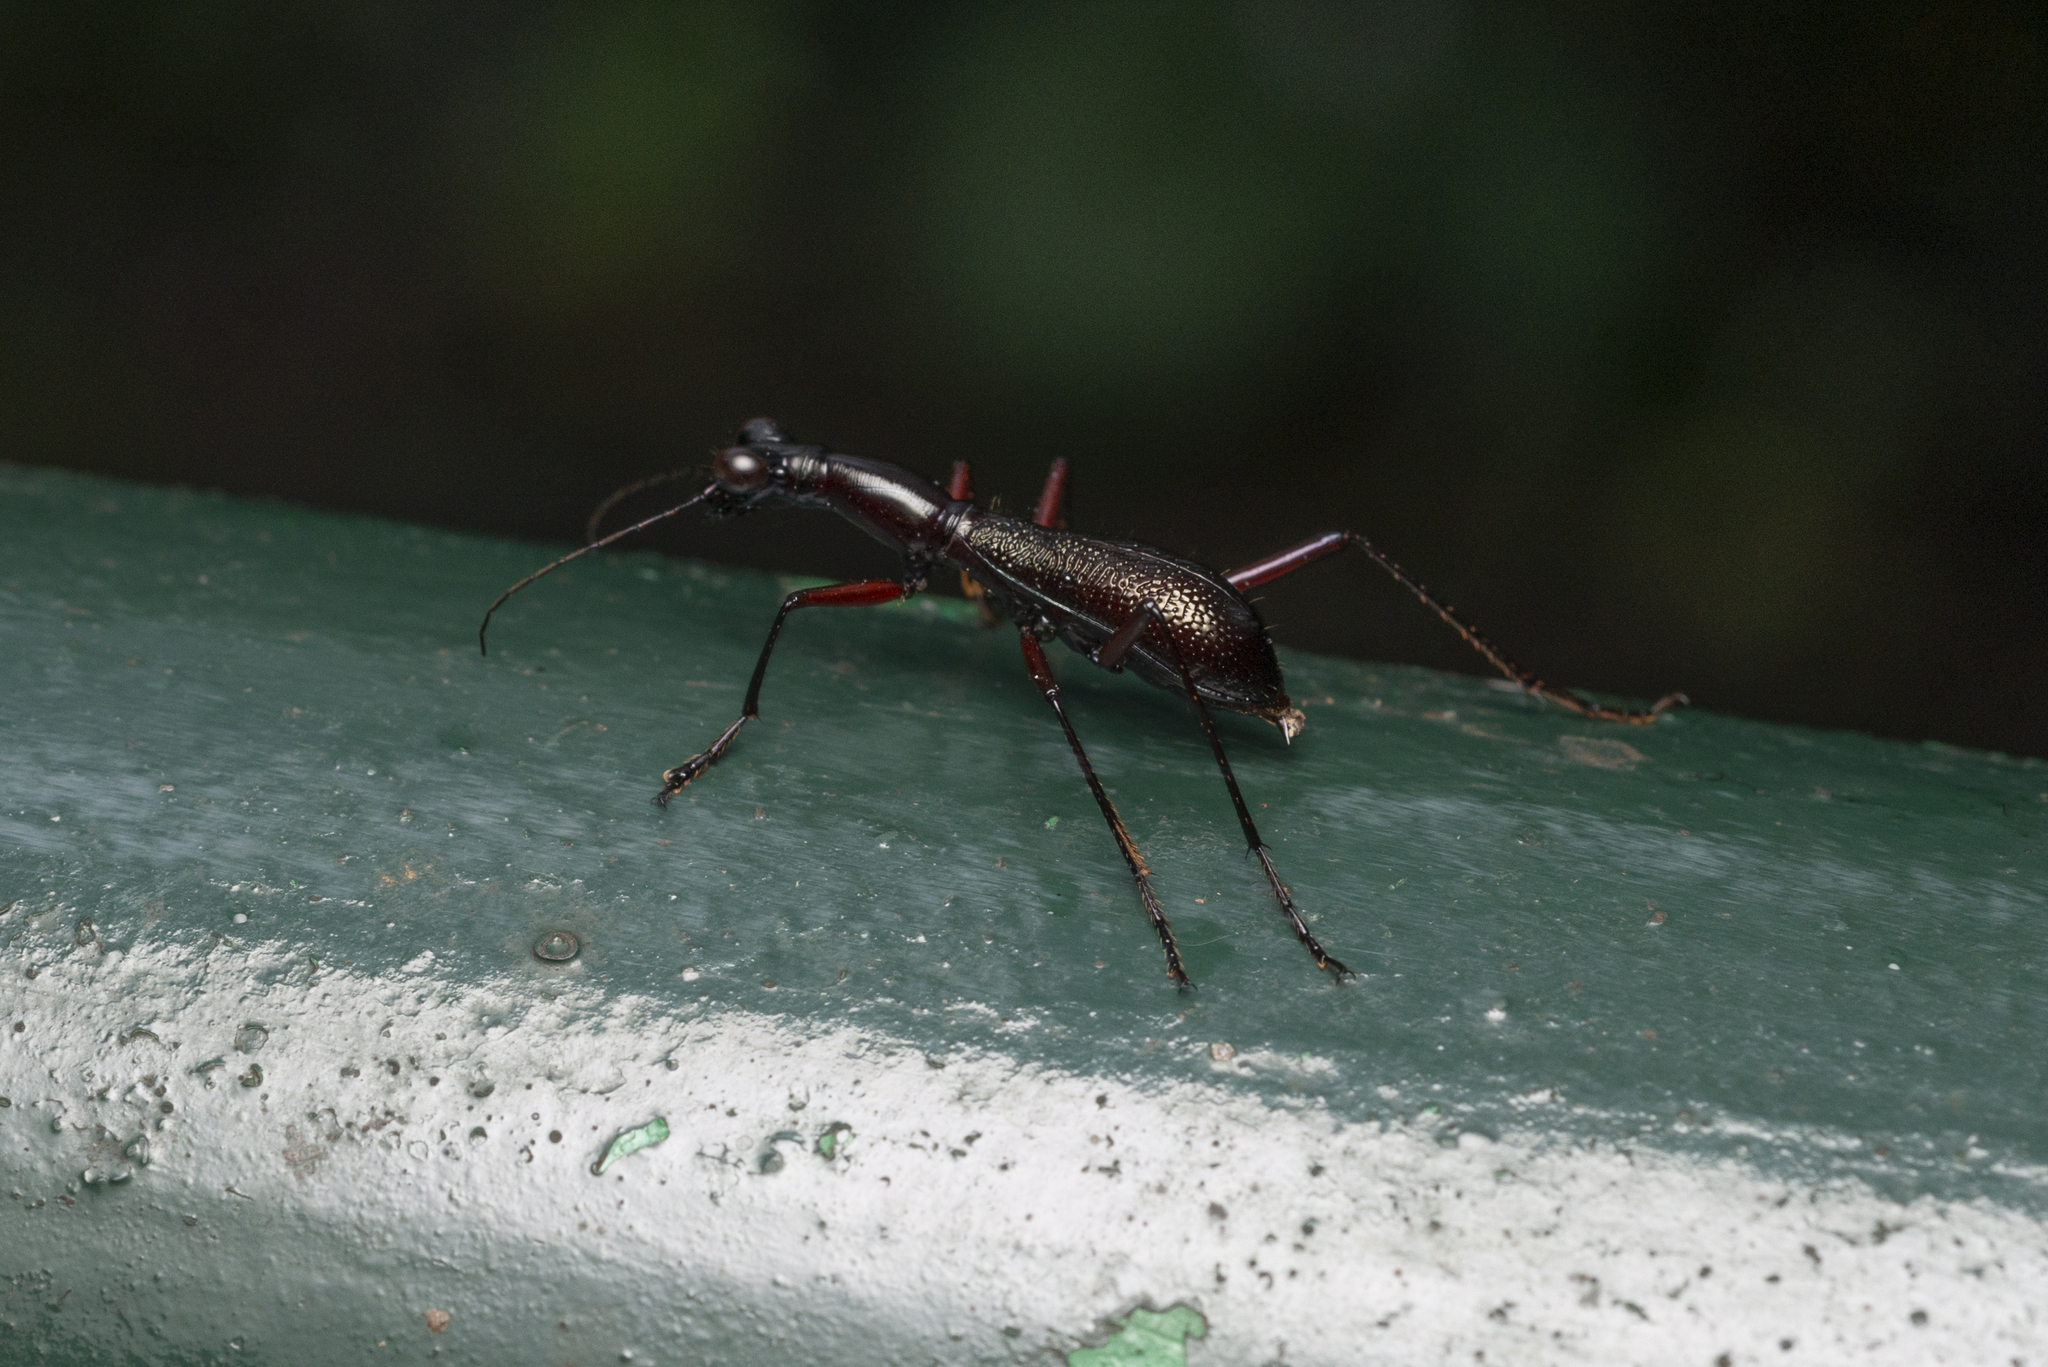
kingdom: Animalia
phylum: Arthropoda
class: Insecta
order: Coleoptera
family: Carabidae
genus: Tricondyla
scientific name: Tricondyla pulchripes
